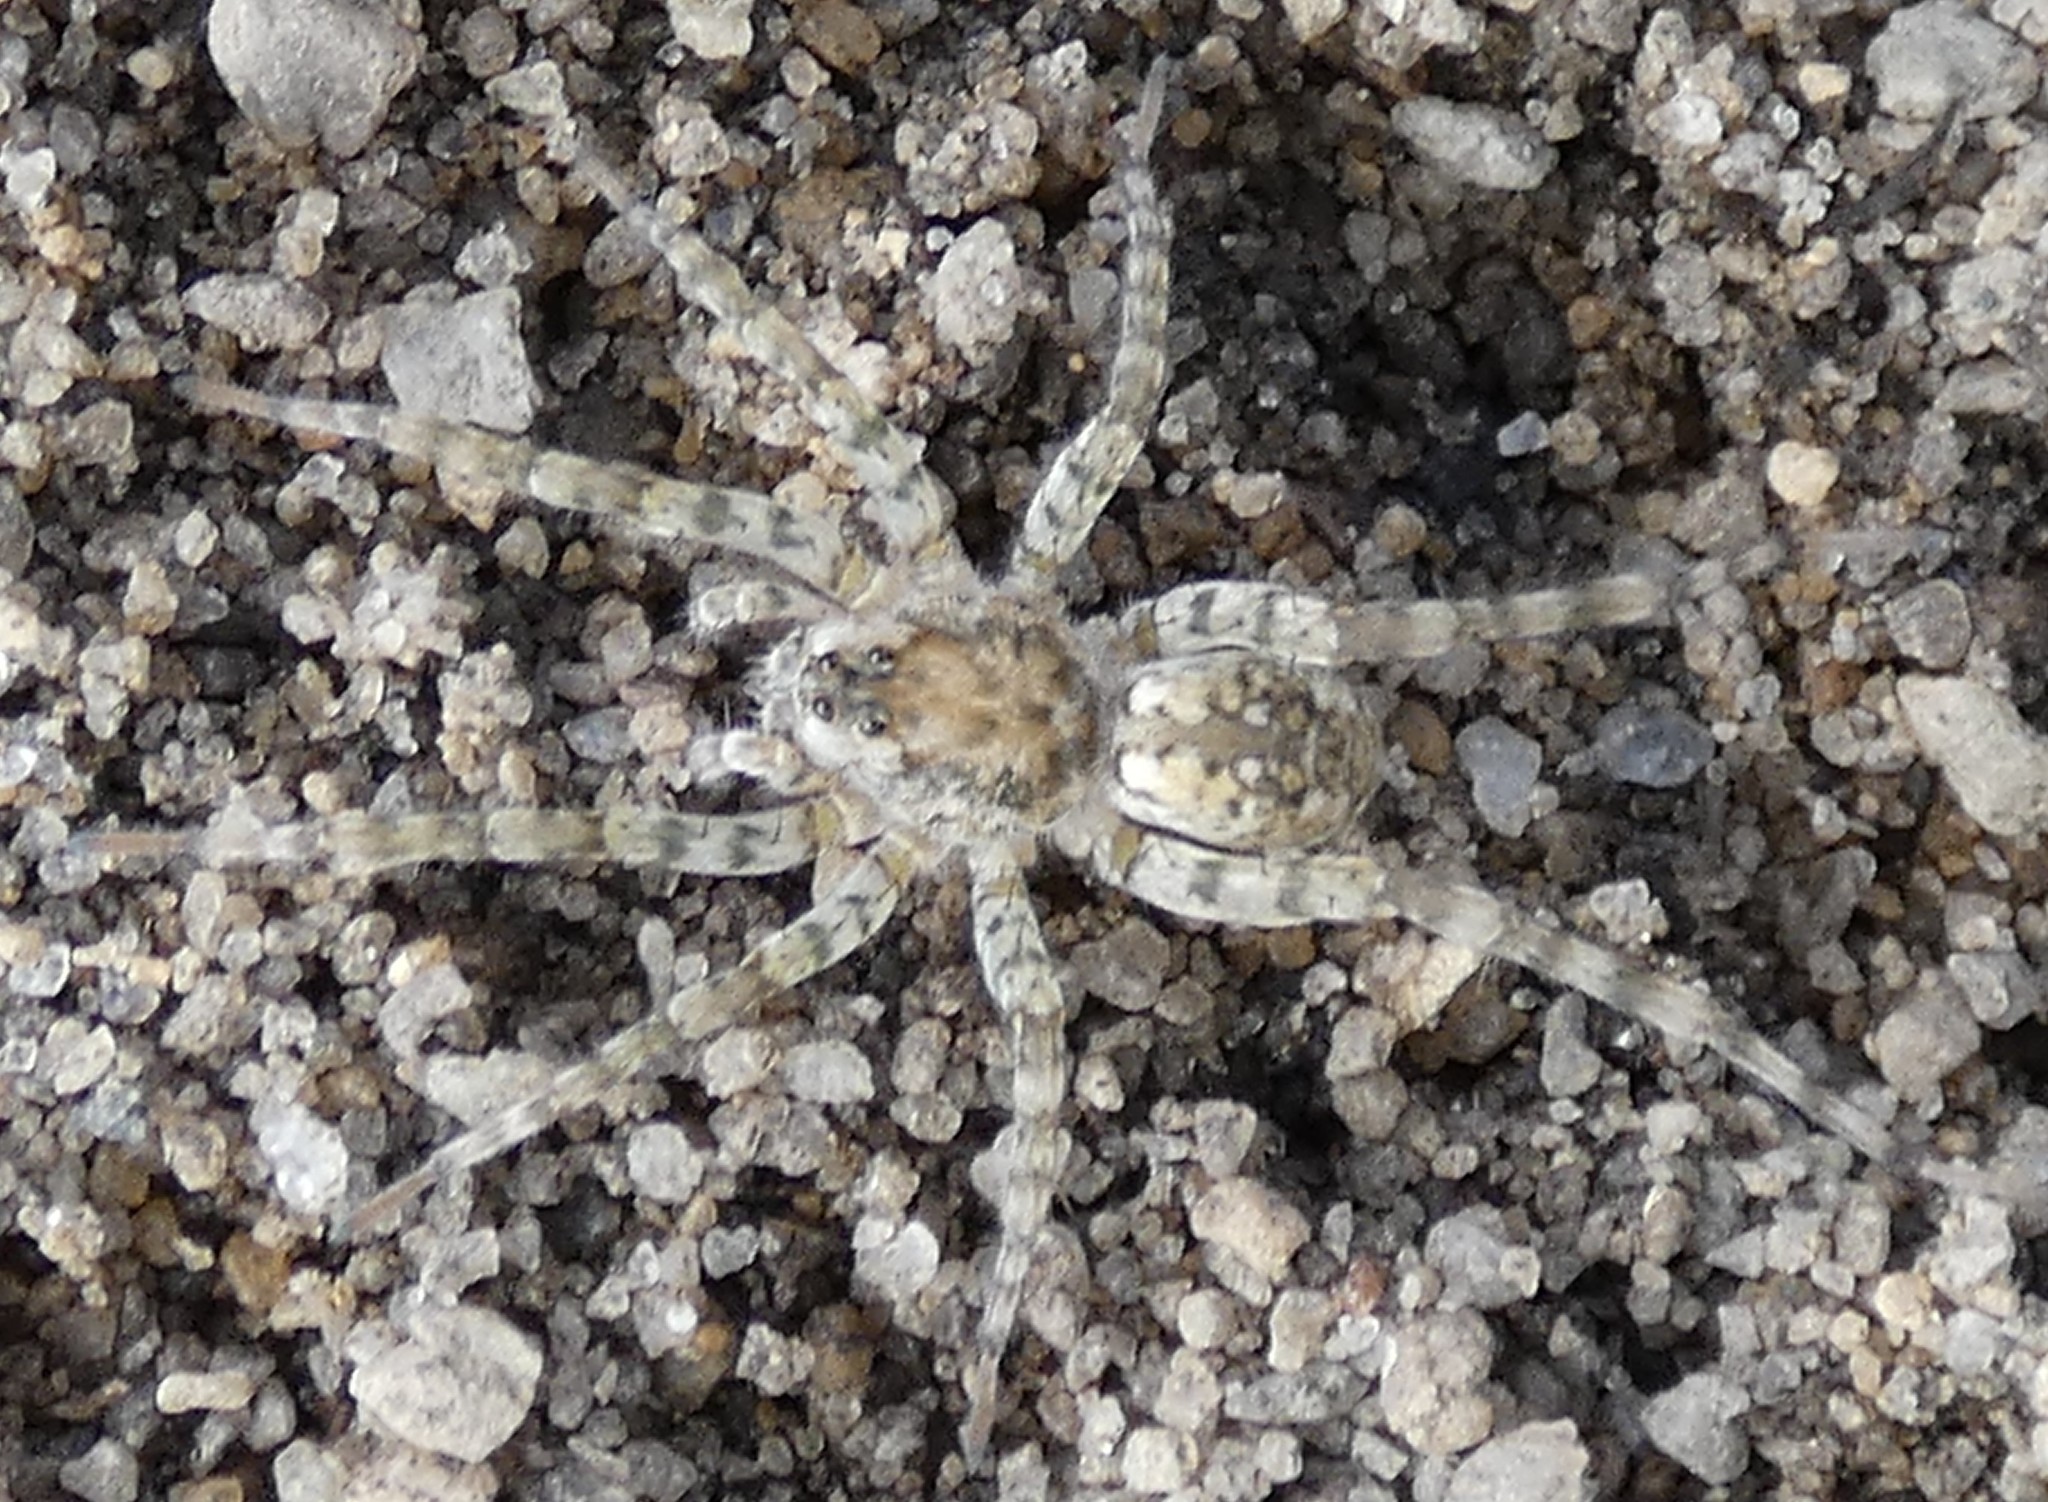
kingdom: Animalia
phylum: Arthropoda
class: Arachnida
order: Araneae
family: Lycosidae
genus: Arctosa
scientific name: Arctosa littoralis
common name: Wolf spiders
